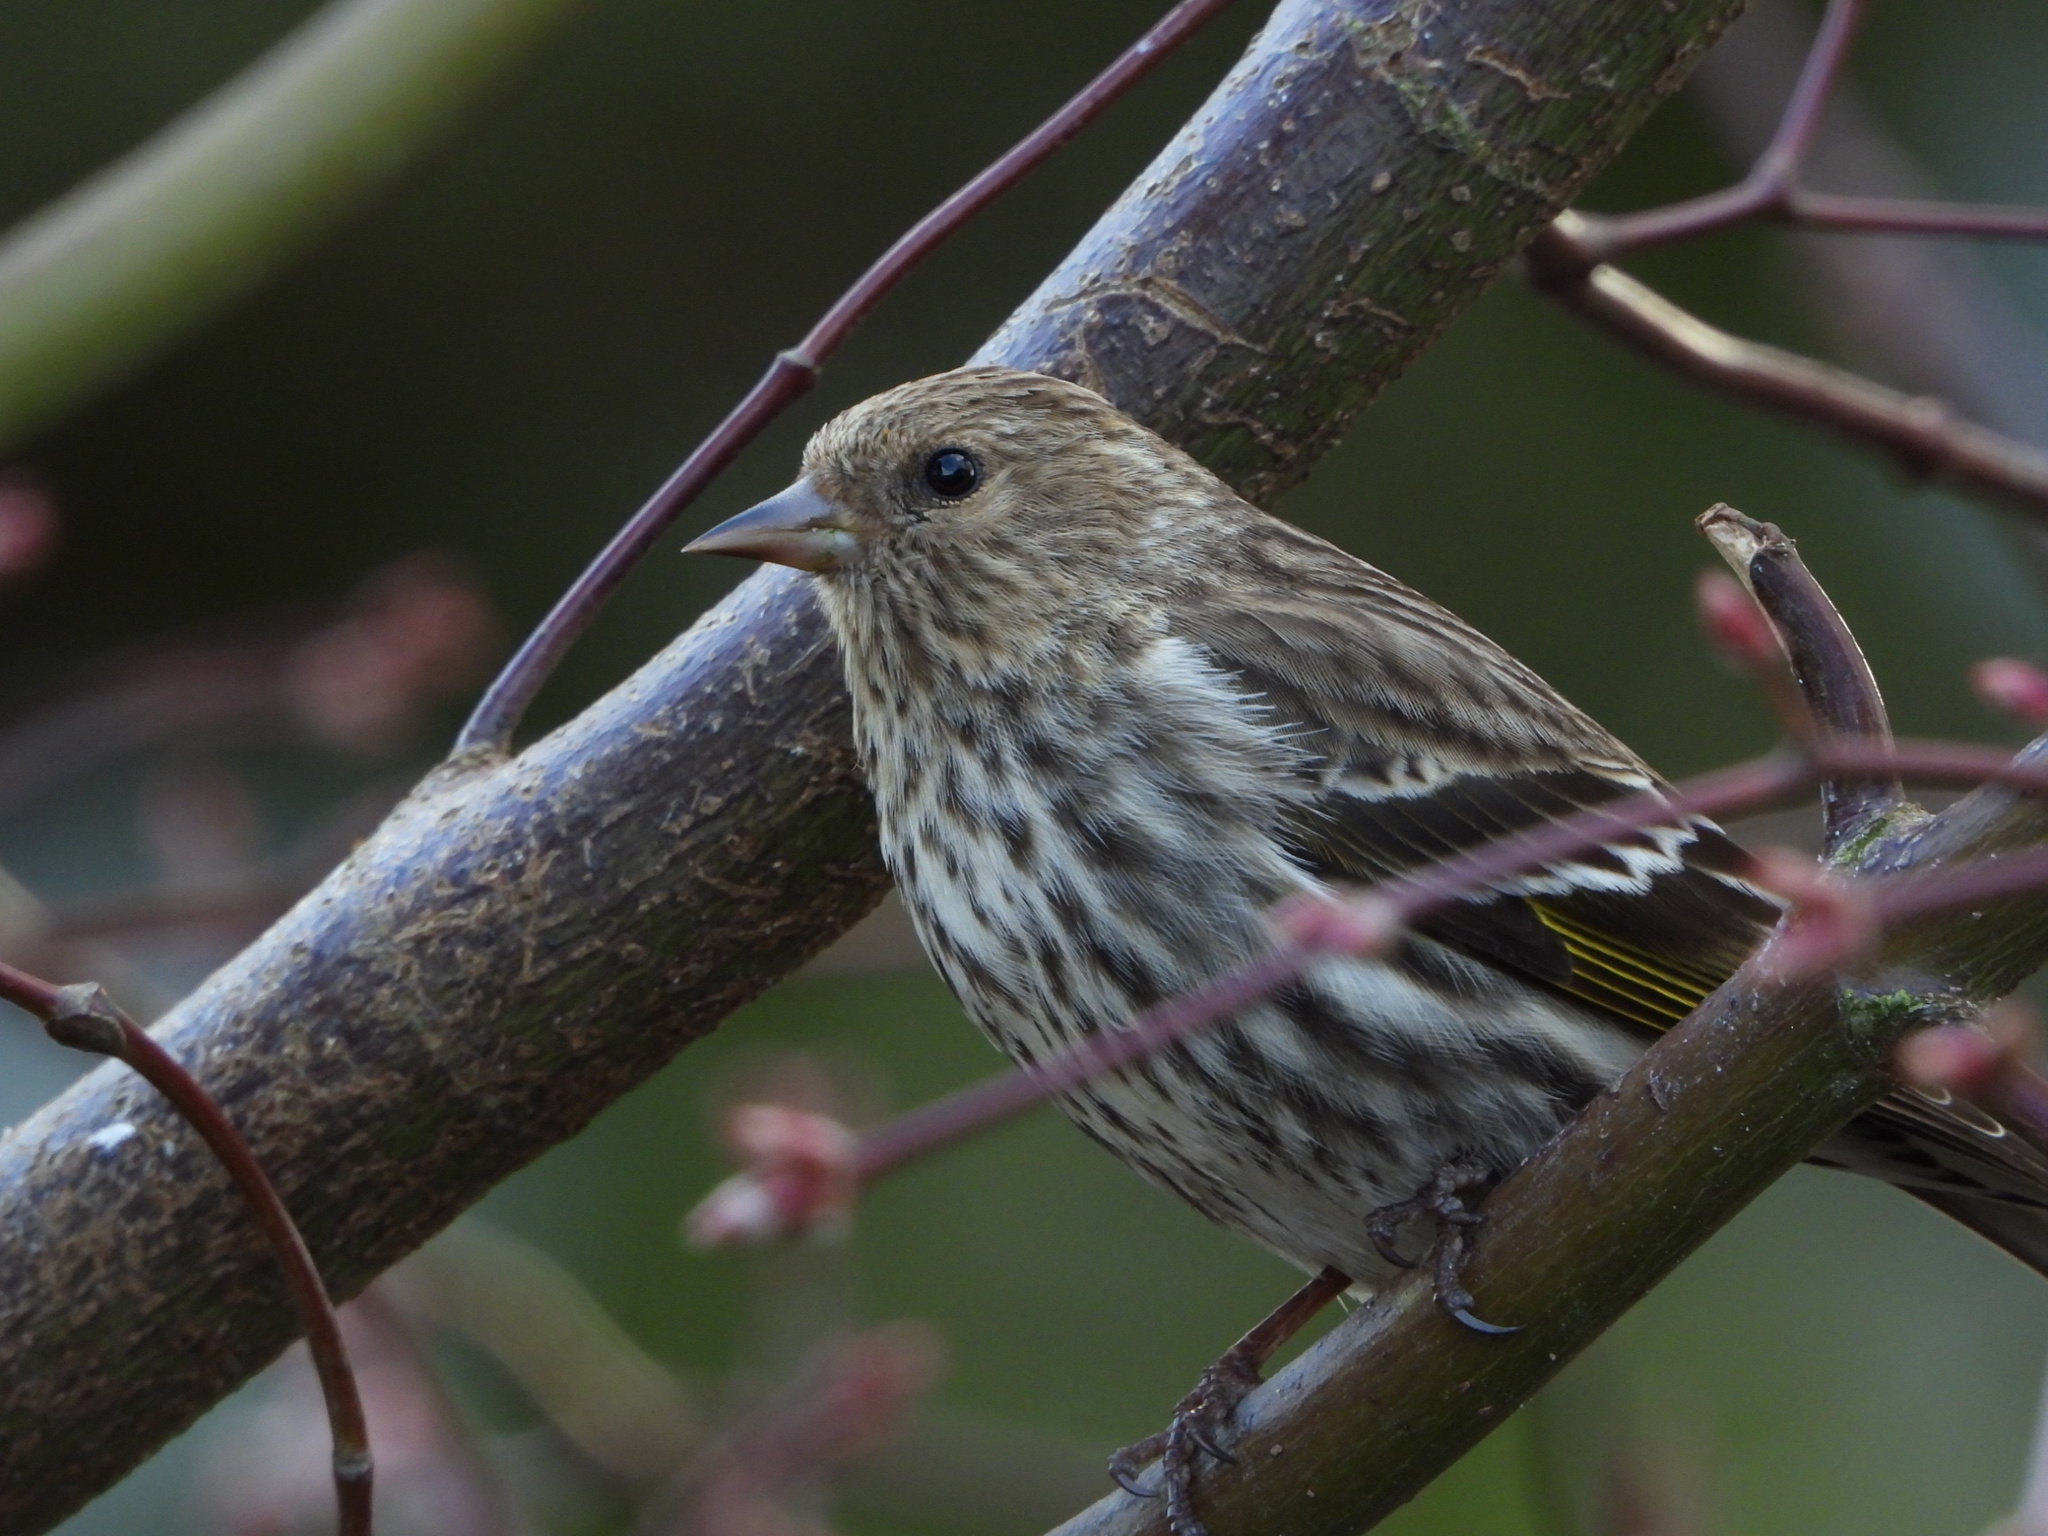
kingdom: Animalia
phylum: Chordata
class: Aves
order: Passeriformes
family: Fringillidae
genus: Spinus
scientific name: Spinus pinus
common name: Pine siskin
